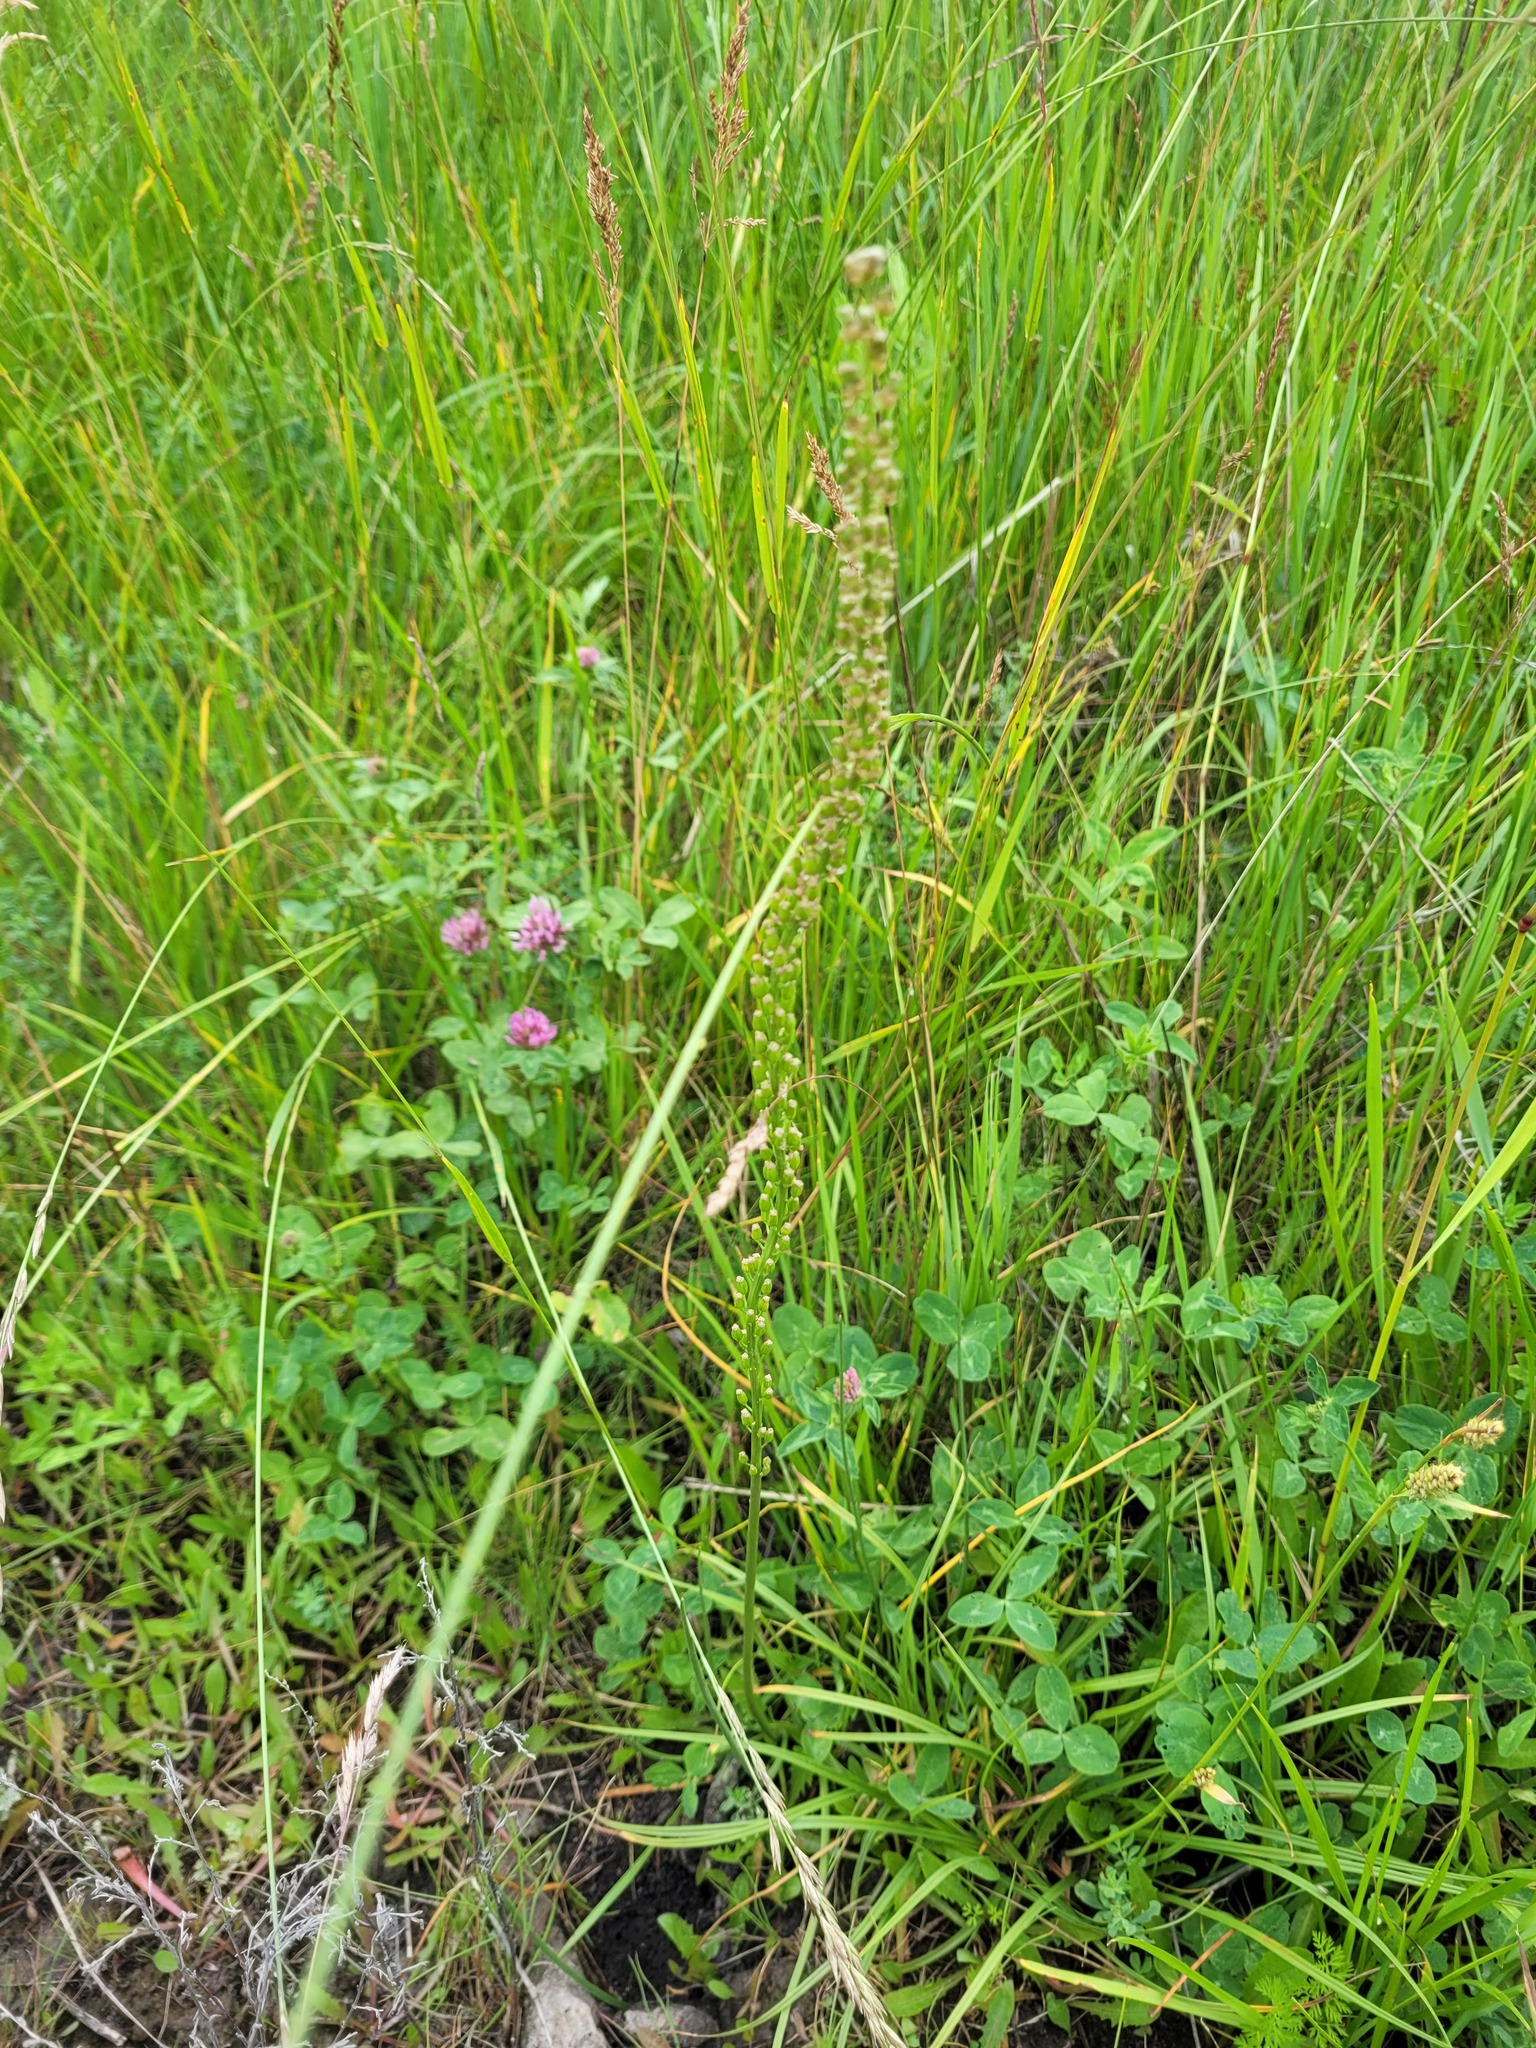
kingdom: Plantae
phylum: Tracheophyta
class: Liliopsida
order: Alismatales
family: Juncaginaceae
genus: Triglochin
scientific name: Triglochin maritima
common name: Sea arrowgrass
